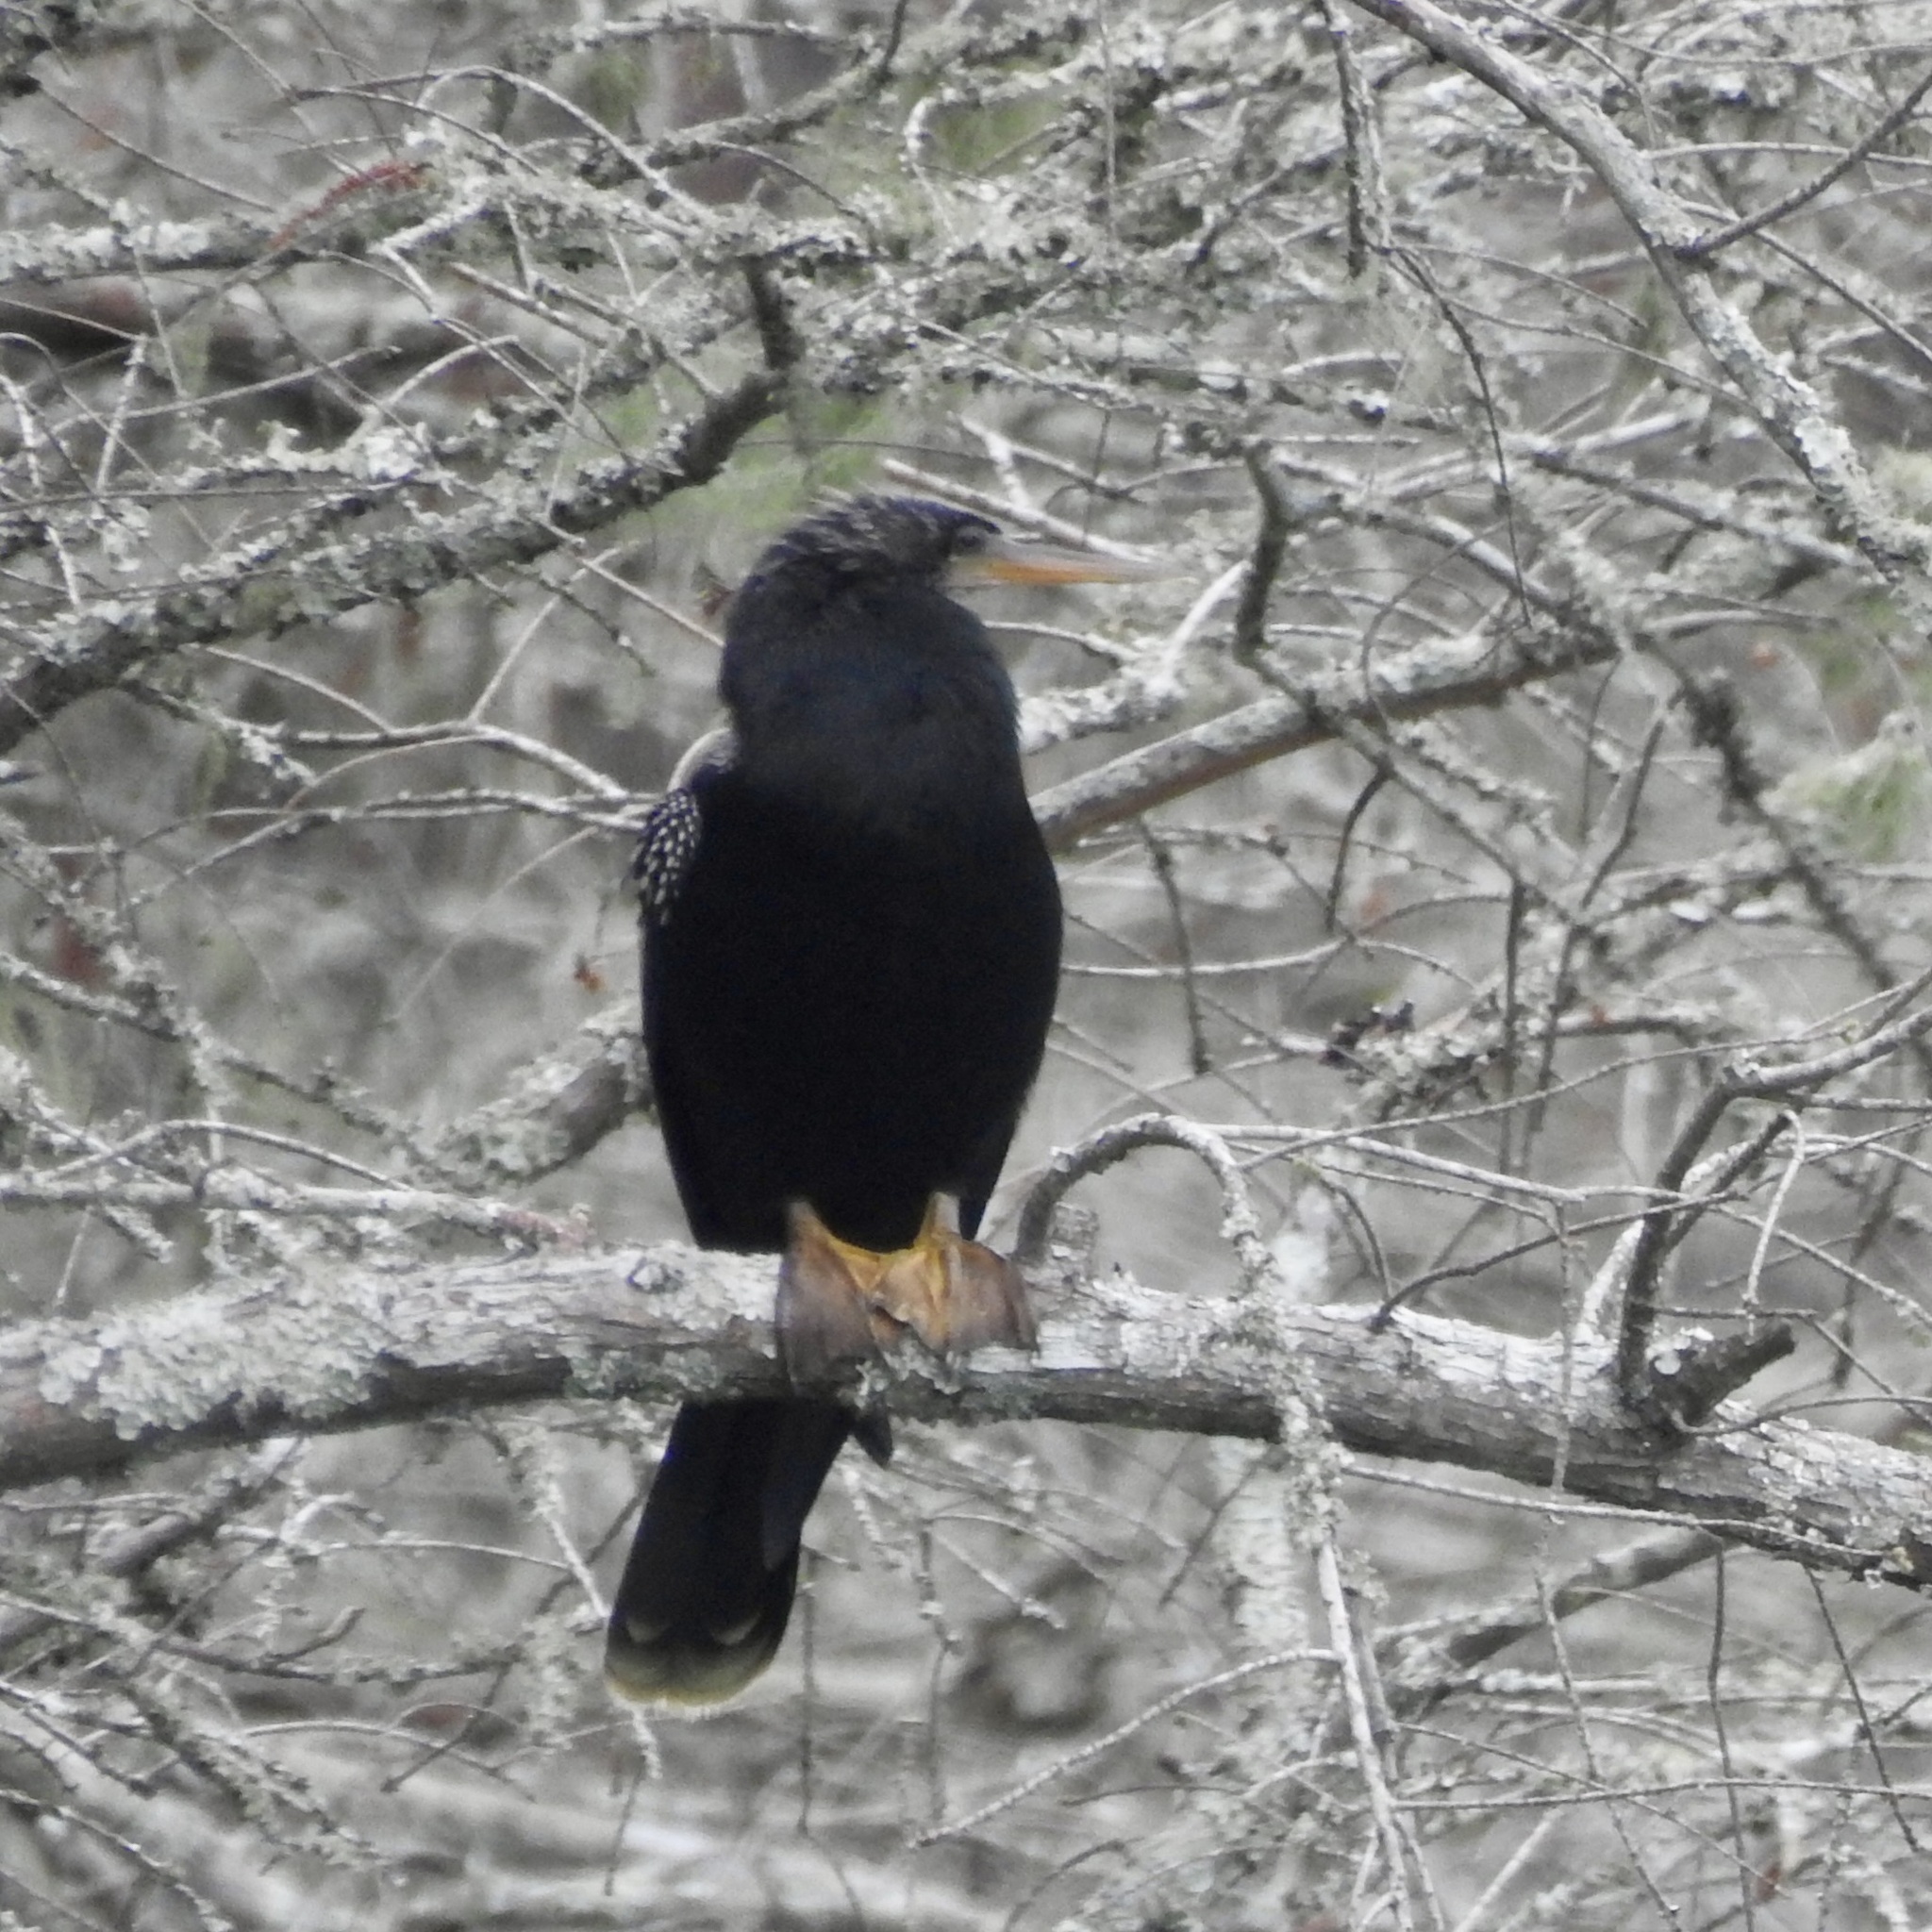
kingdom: Animalia
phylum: Chordata
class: Aves
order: Suliformes
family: Anhingidae
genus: Anhinga
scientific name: Anhinga anhinga
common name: Anhinga
